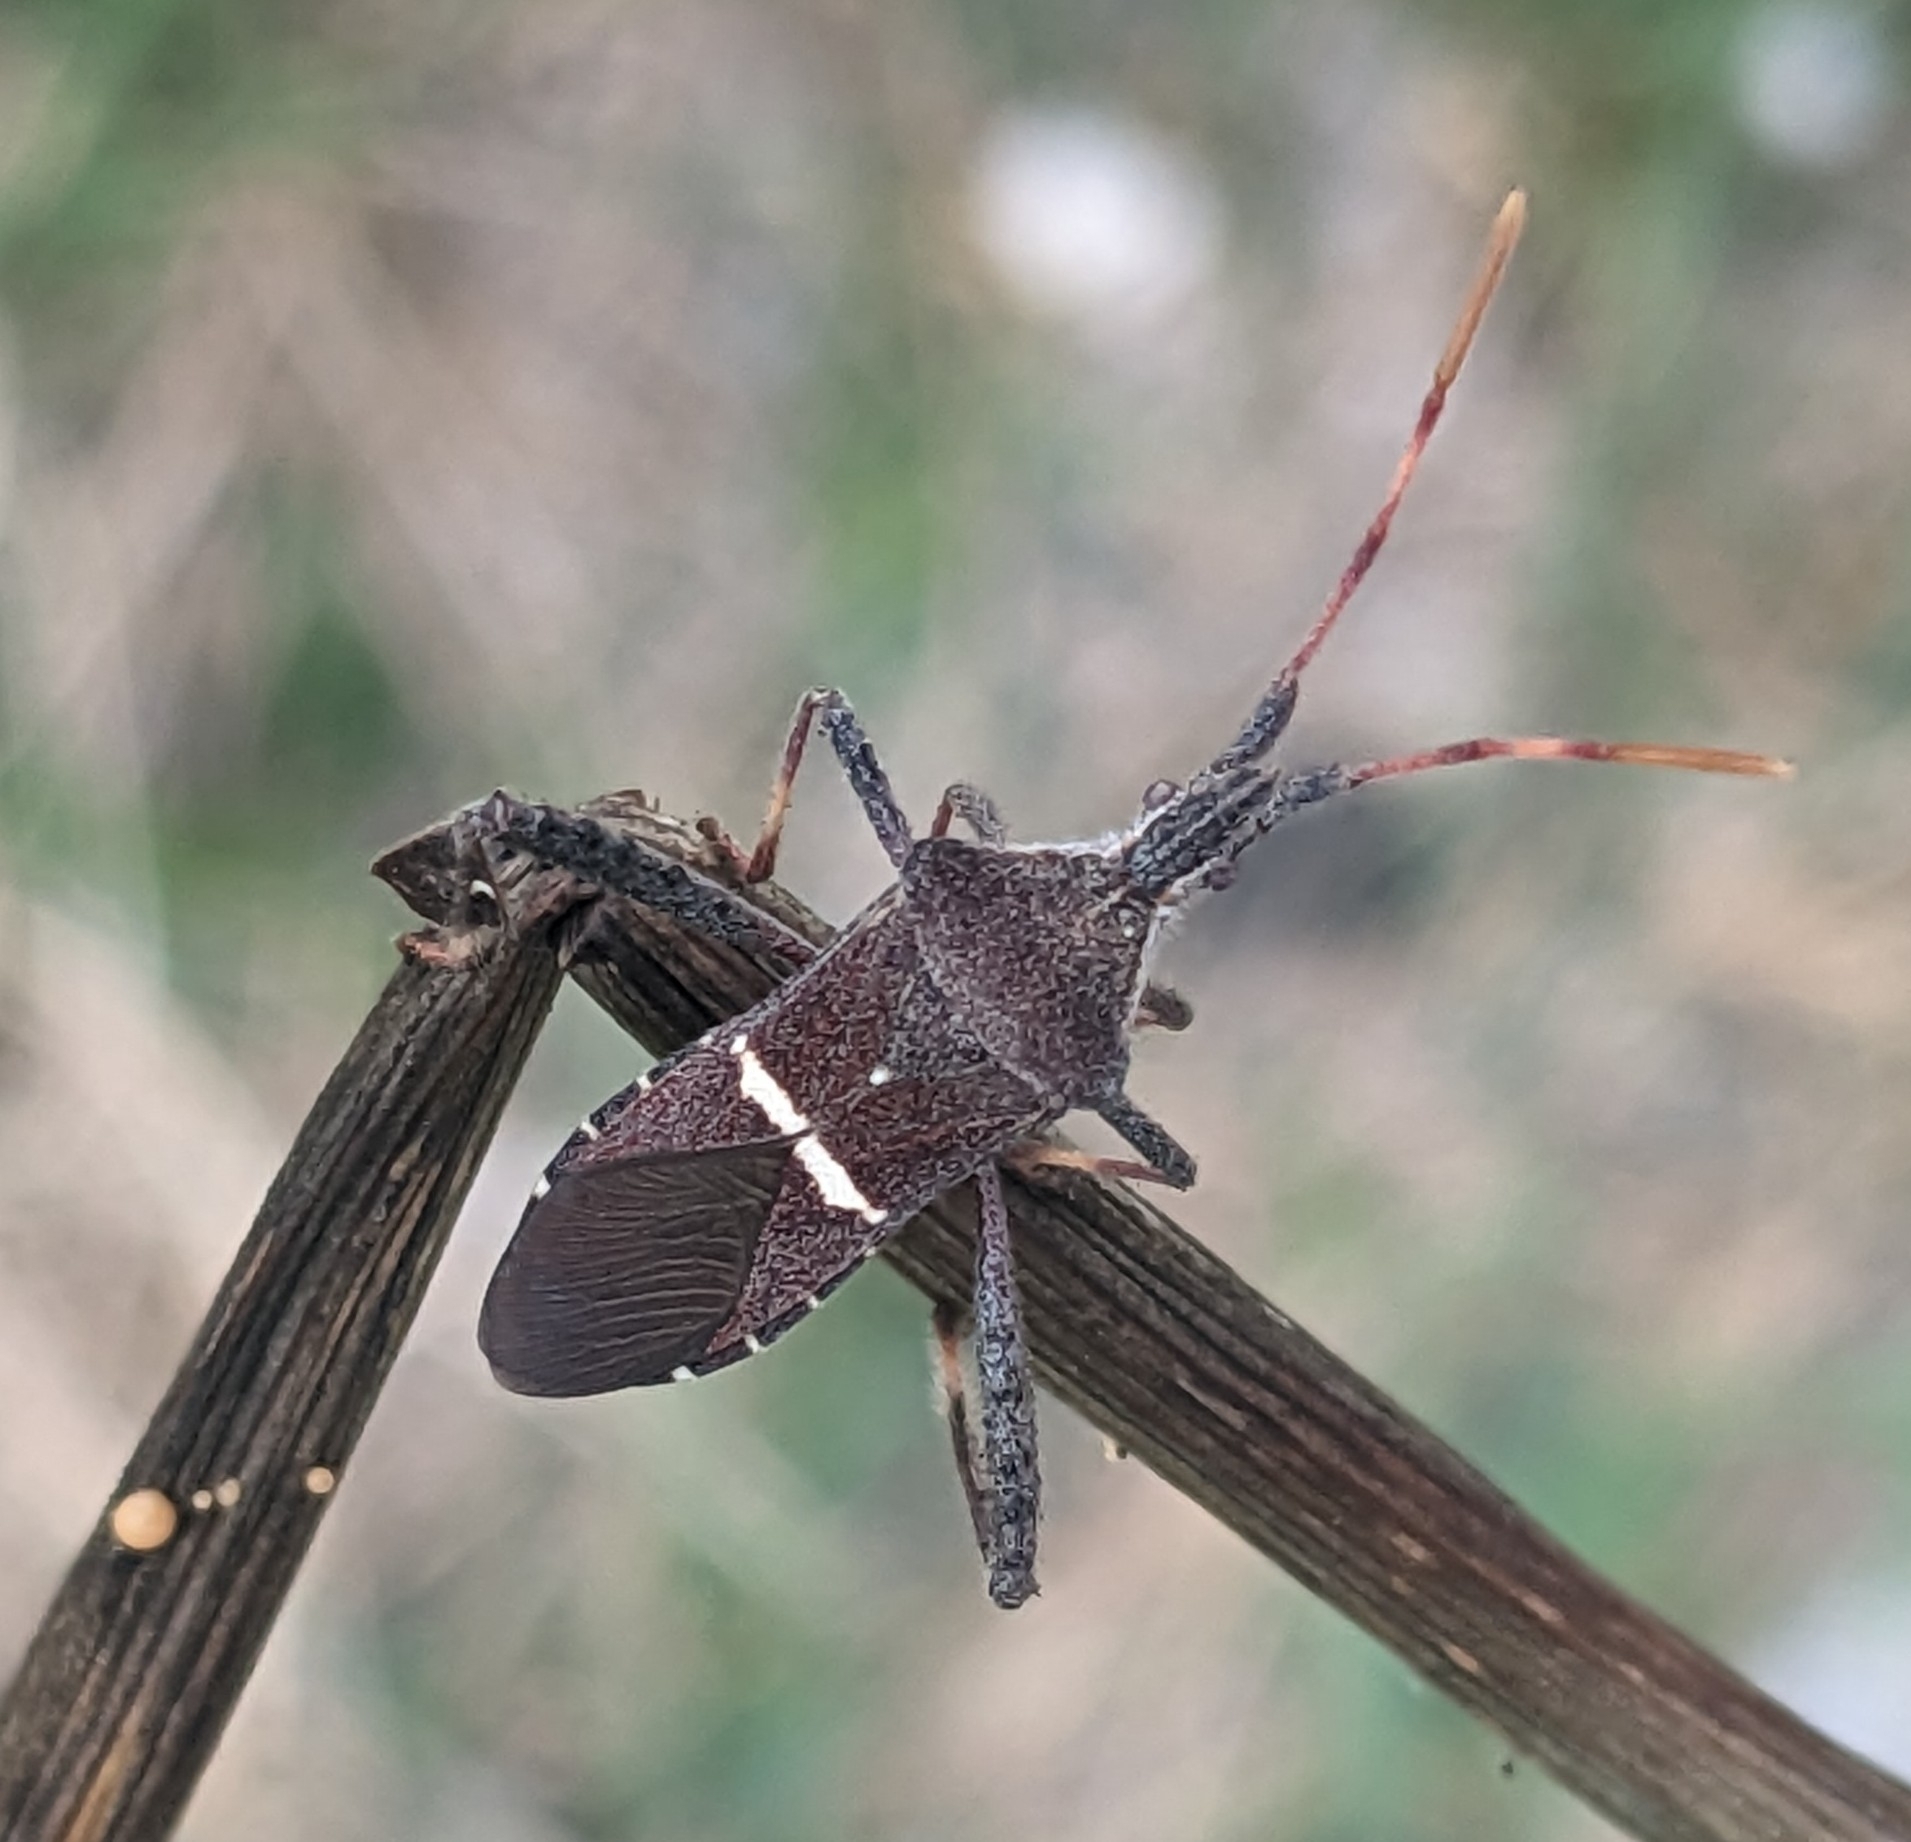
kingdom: Animalia
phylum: Arthropoda
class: Insecta
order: Hemiptera
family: Coreidae
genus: Leptoglossus
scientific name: Leptoglossus phyllopus
